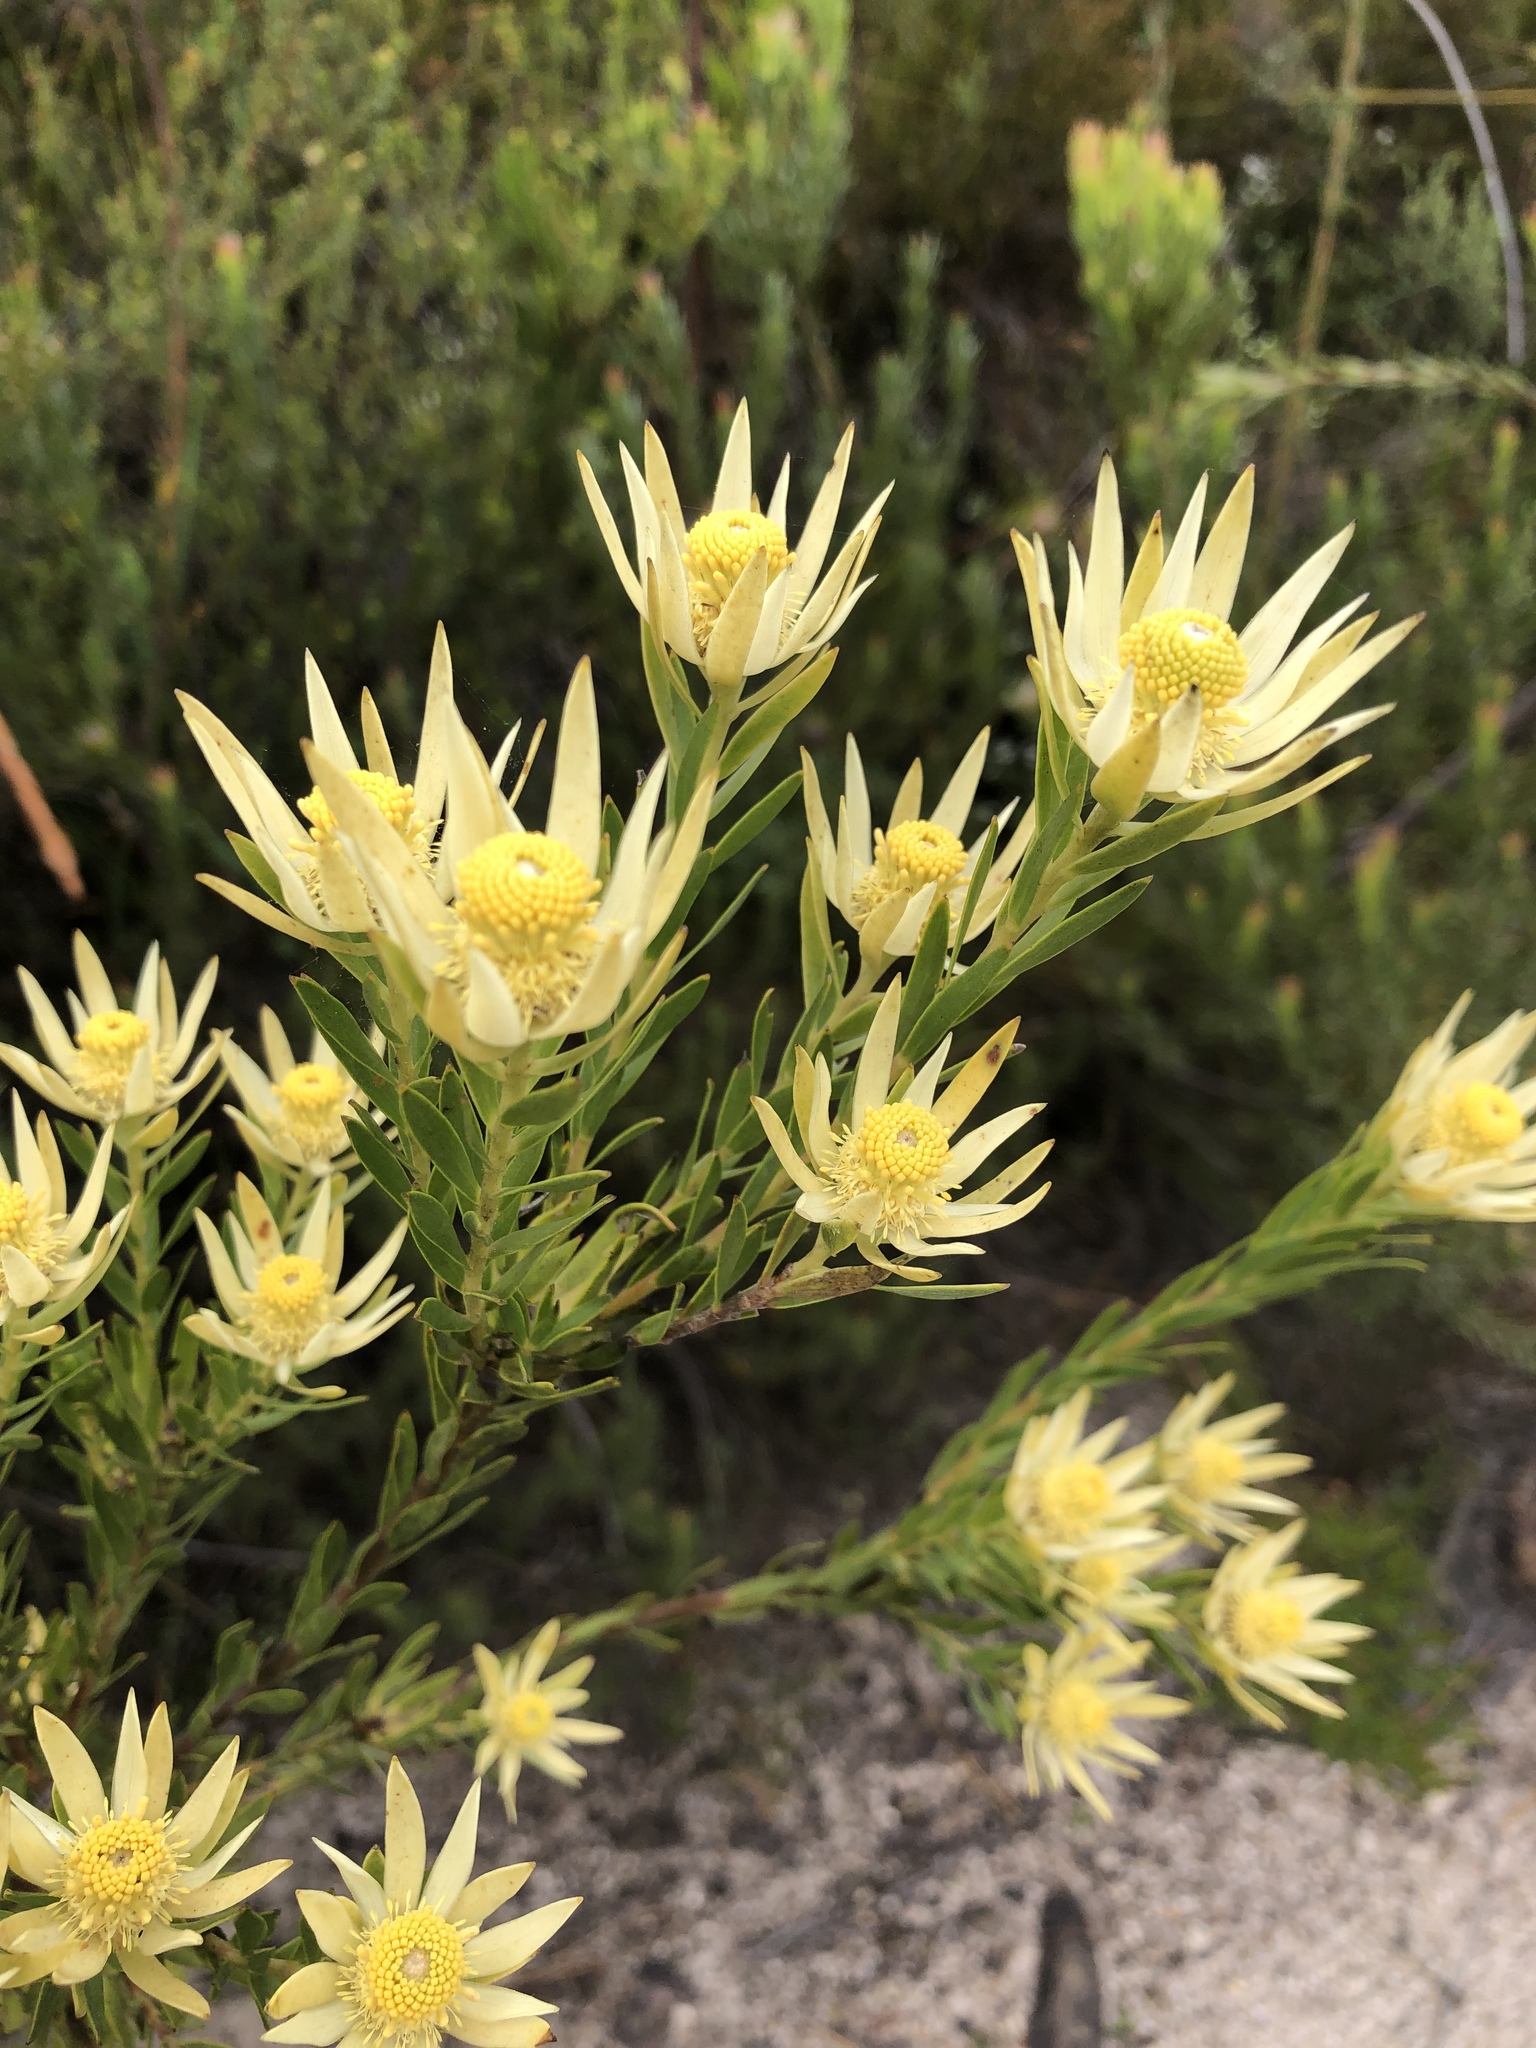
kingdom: Plantae
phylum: Tracheophyta
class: Magnoliopsida
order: Proteales
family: Proteaceae
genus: Leucadendron
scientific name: Leucadendron uliginosum
